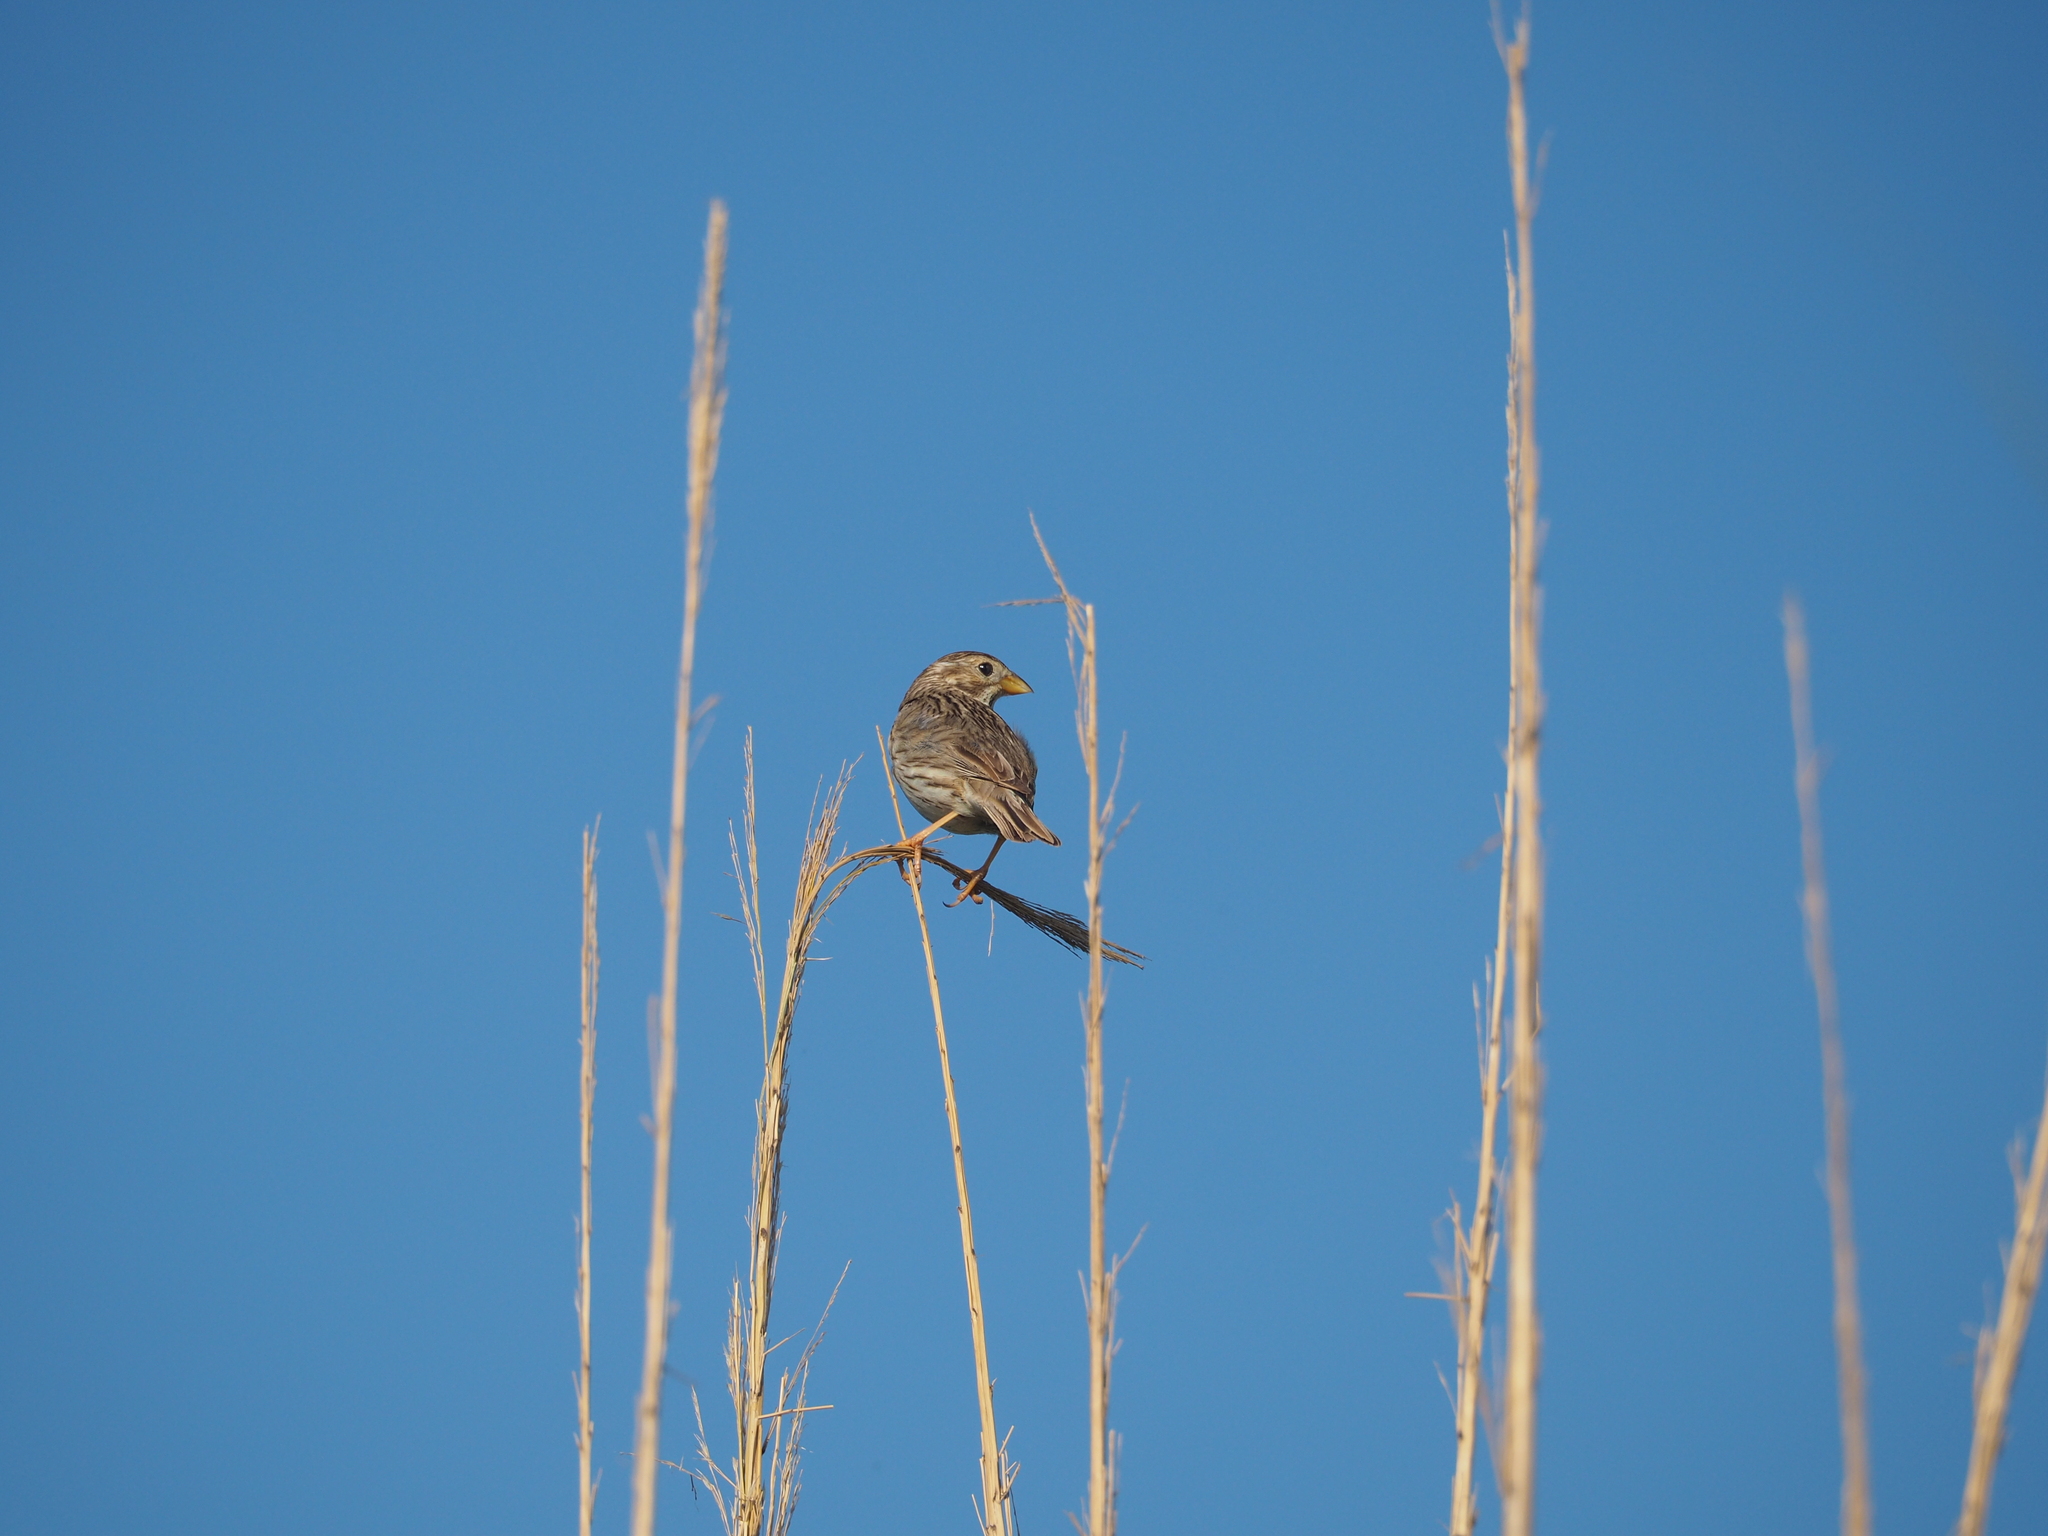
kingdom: Animalia
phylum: Chordata
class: Aves
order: Passeriformes
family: Emberizidae
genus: Emberiza
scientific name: Emberiza calandra
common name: Corn bunting
